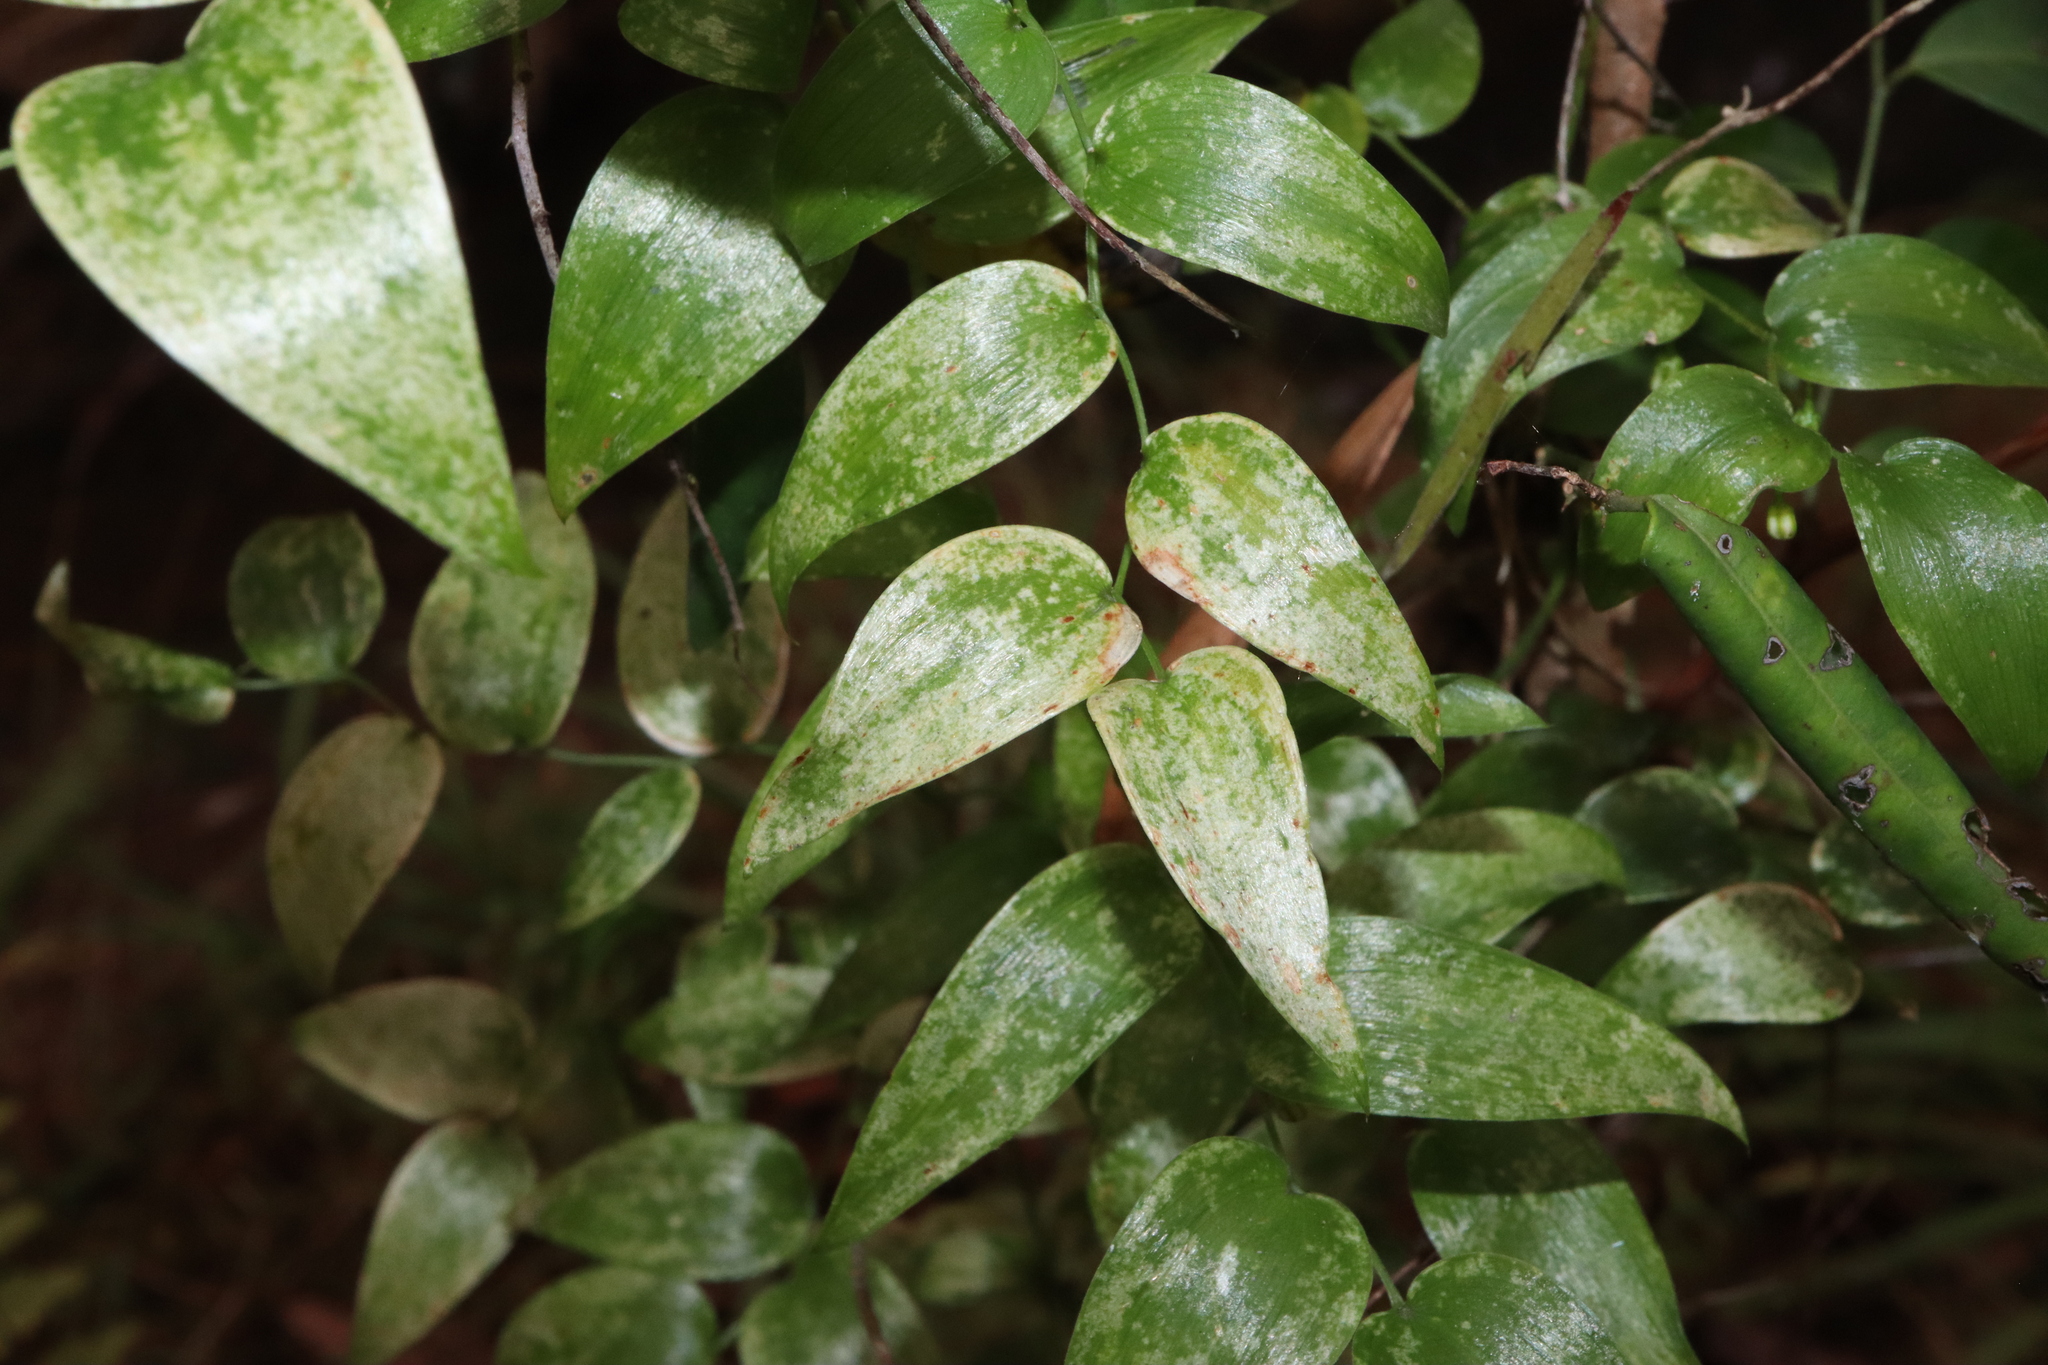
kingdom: Plantae
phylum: Tracheophyta
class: Liliopsida
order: Asparagales
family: Asparagaceae
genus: Asparagus
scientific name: Asparagus asparagoides
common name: African asparagus fern
